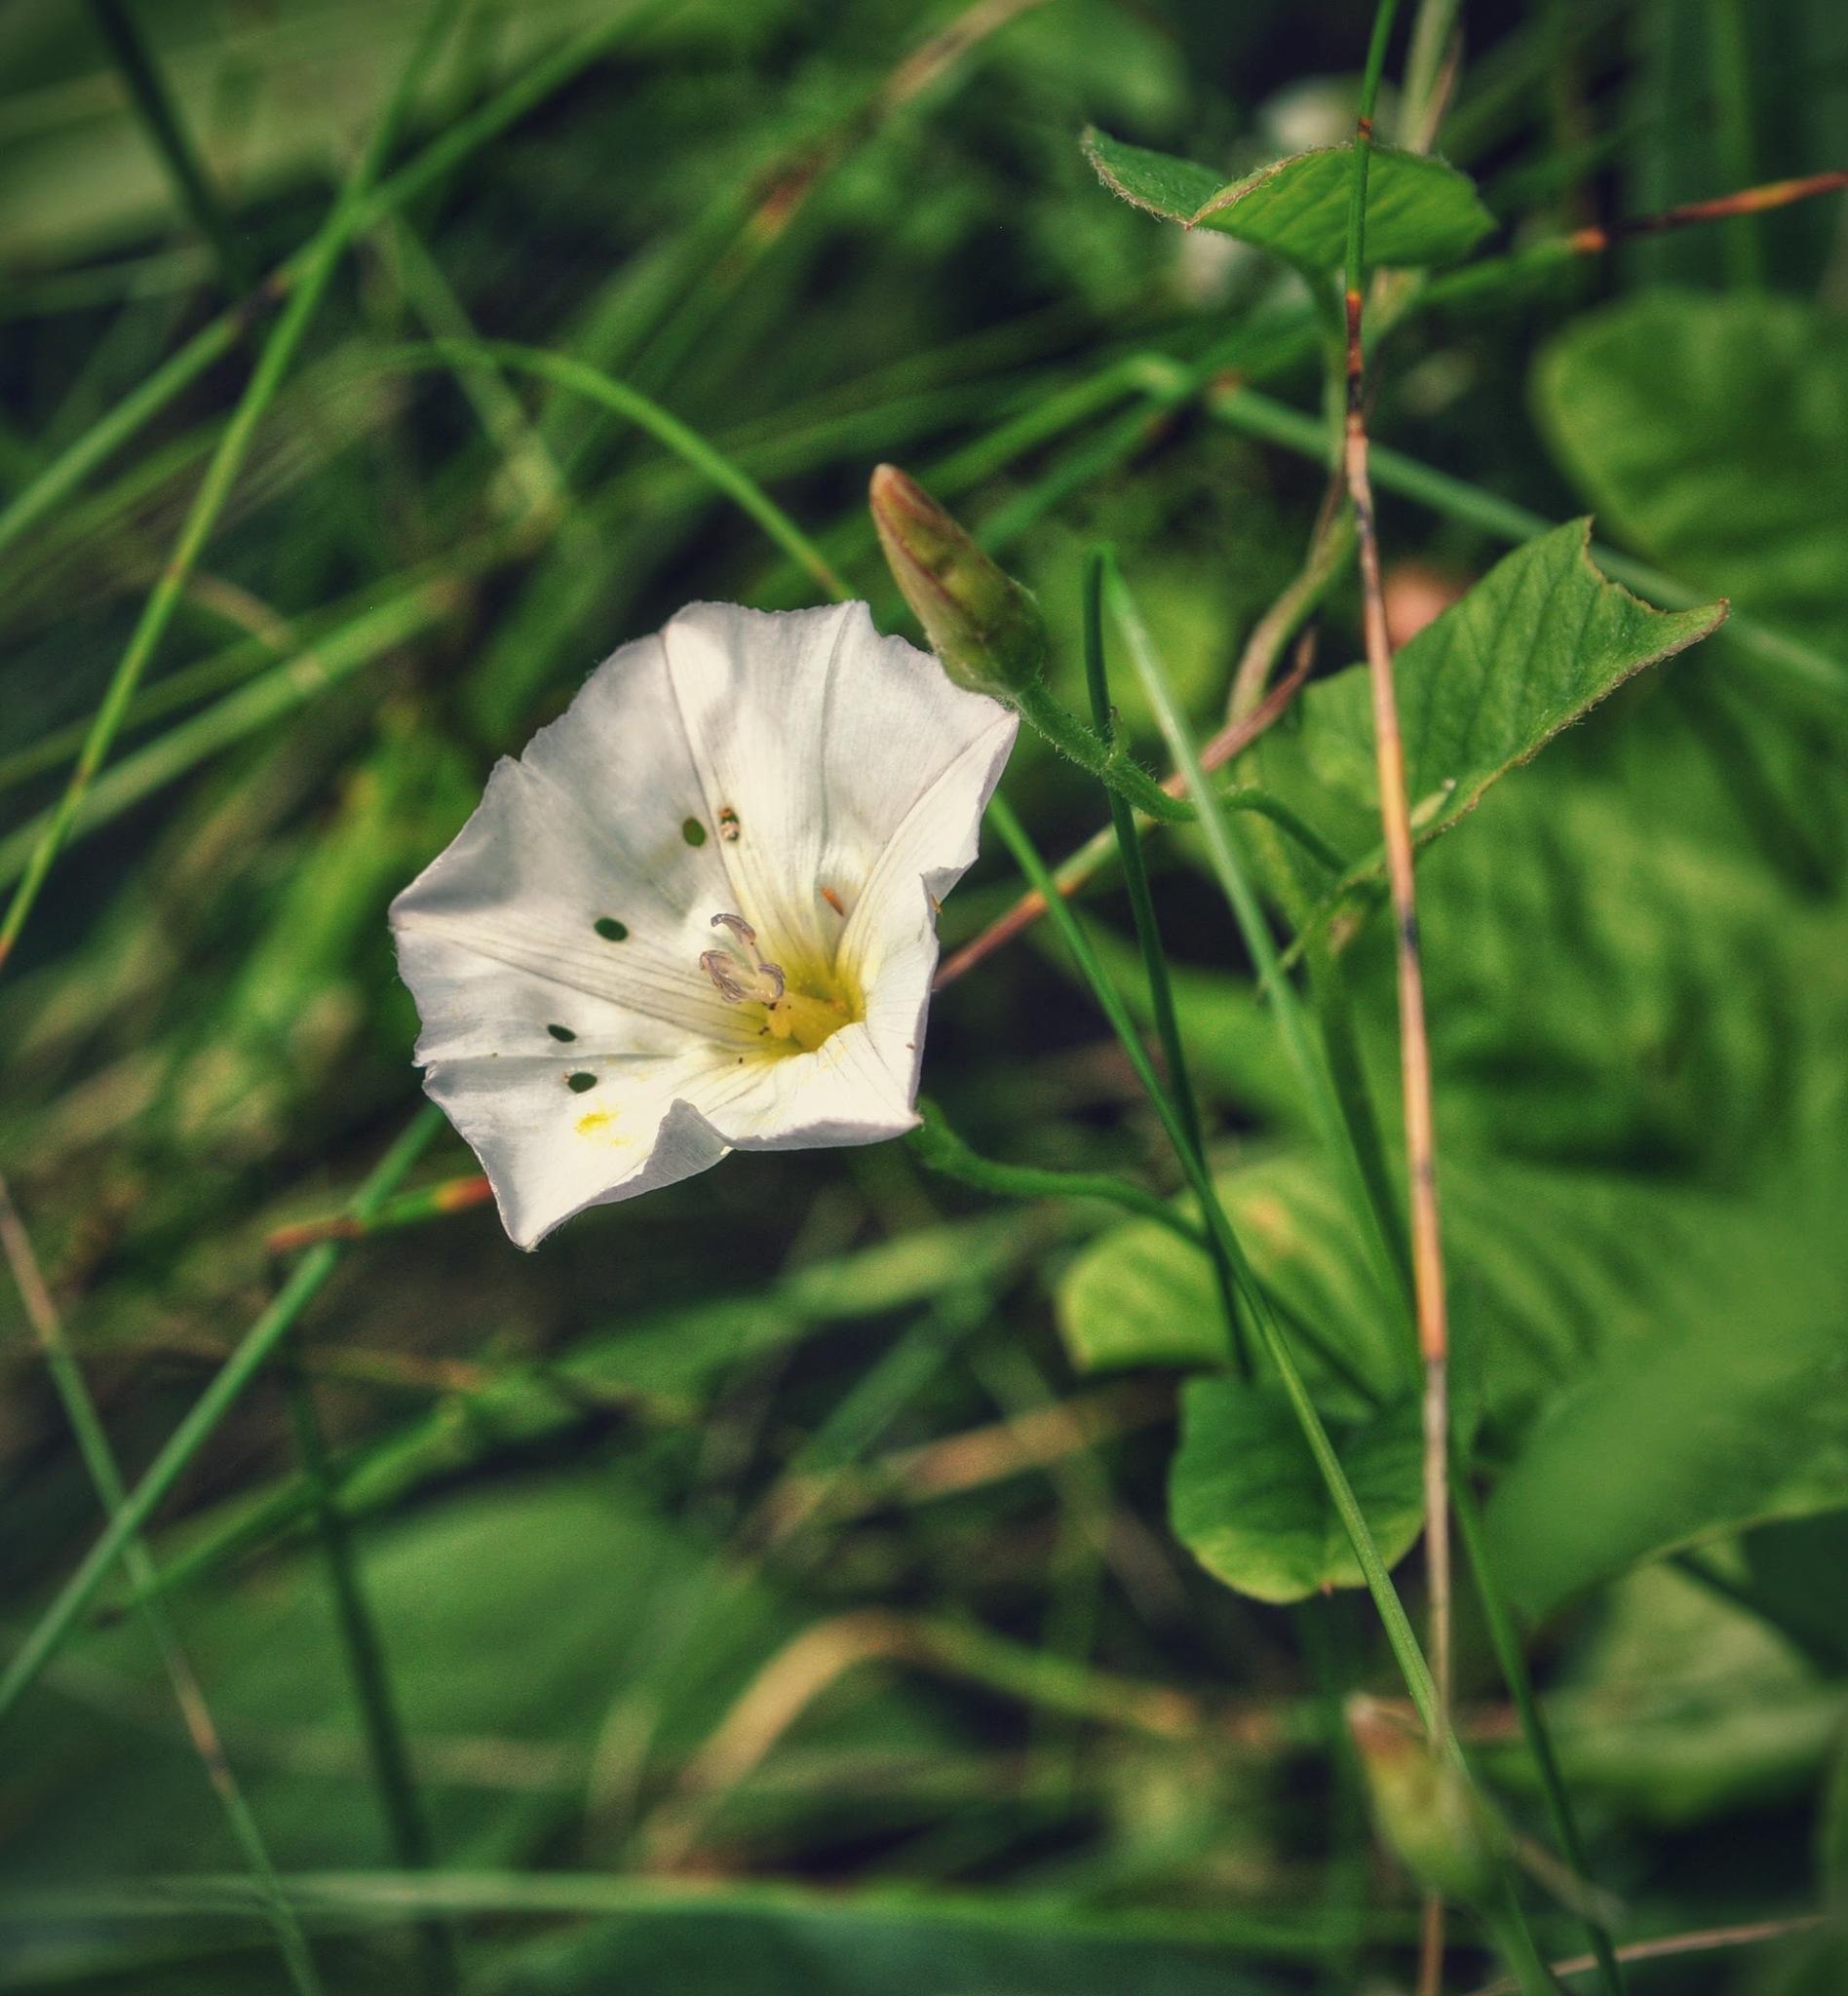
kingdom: Plantae
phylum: Tracheophyta
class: Magnoliopsida
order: Solanales
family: Convolvulaceae
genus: Calystegia
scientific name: Calystegia sepium
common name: Hedge bindweed
